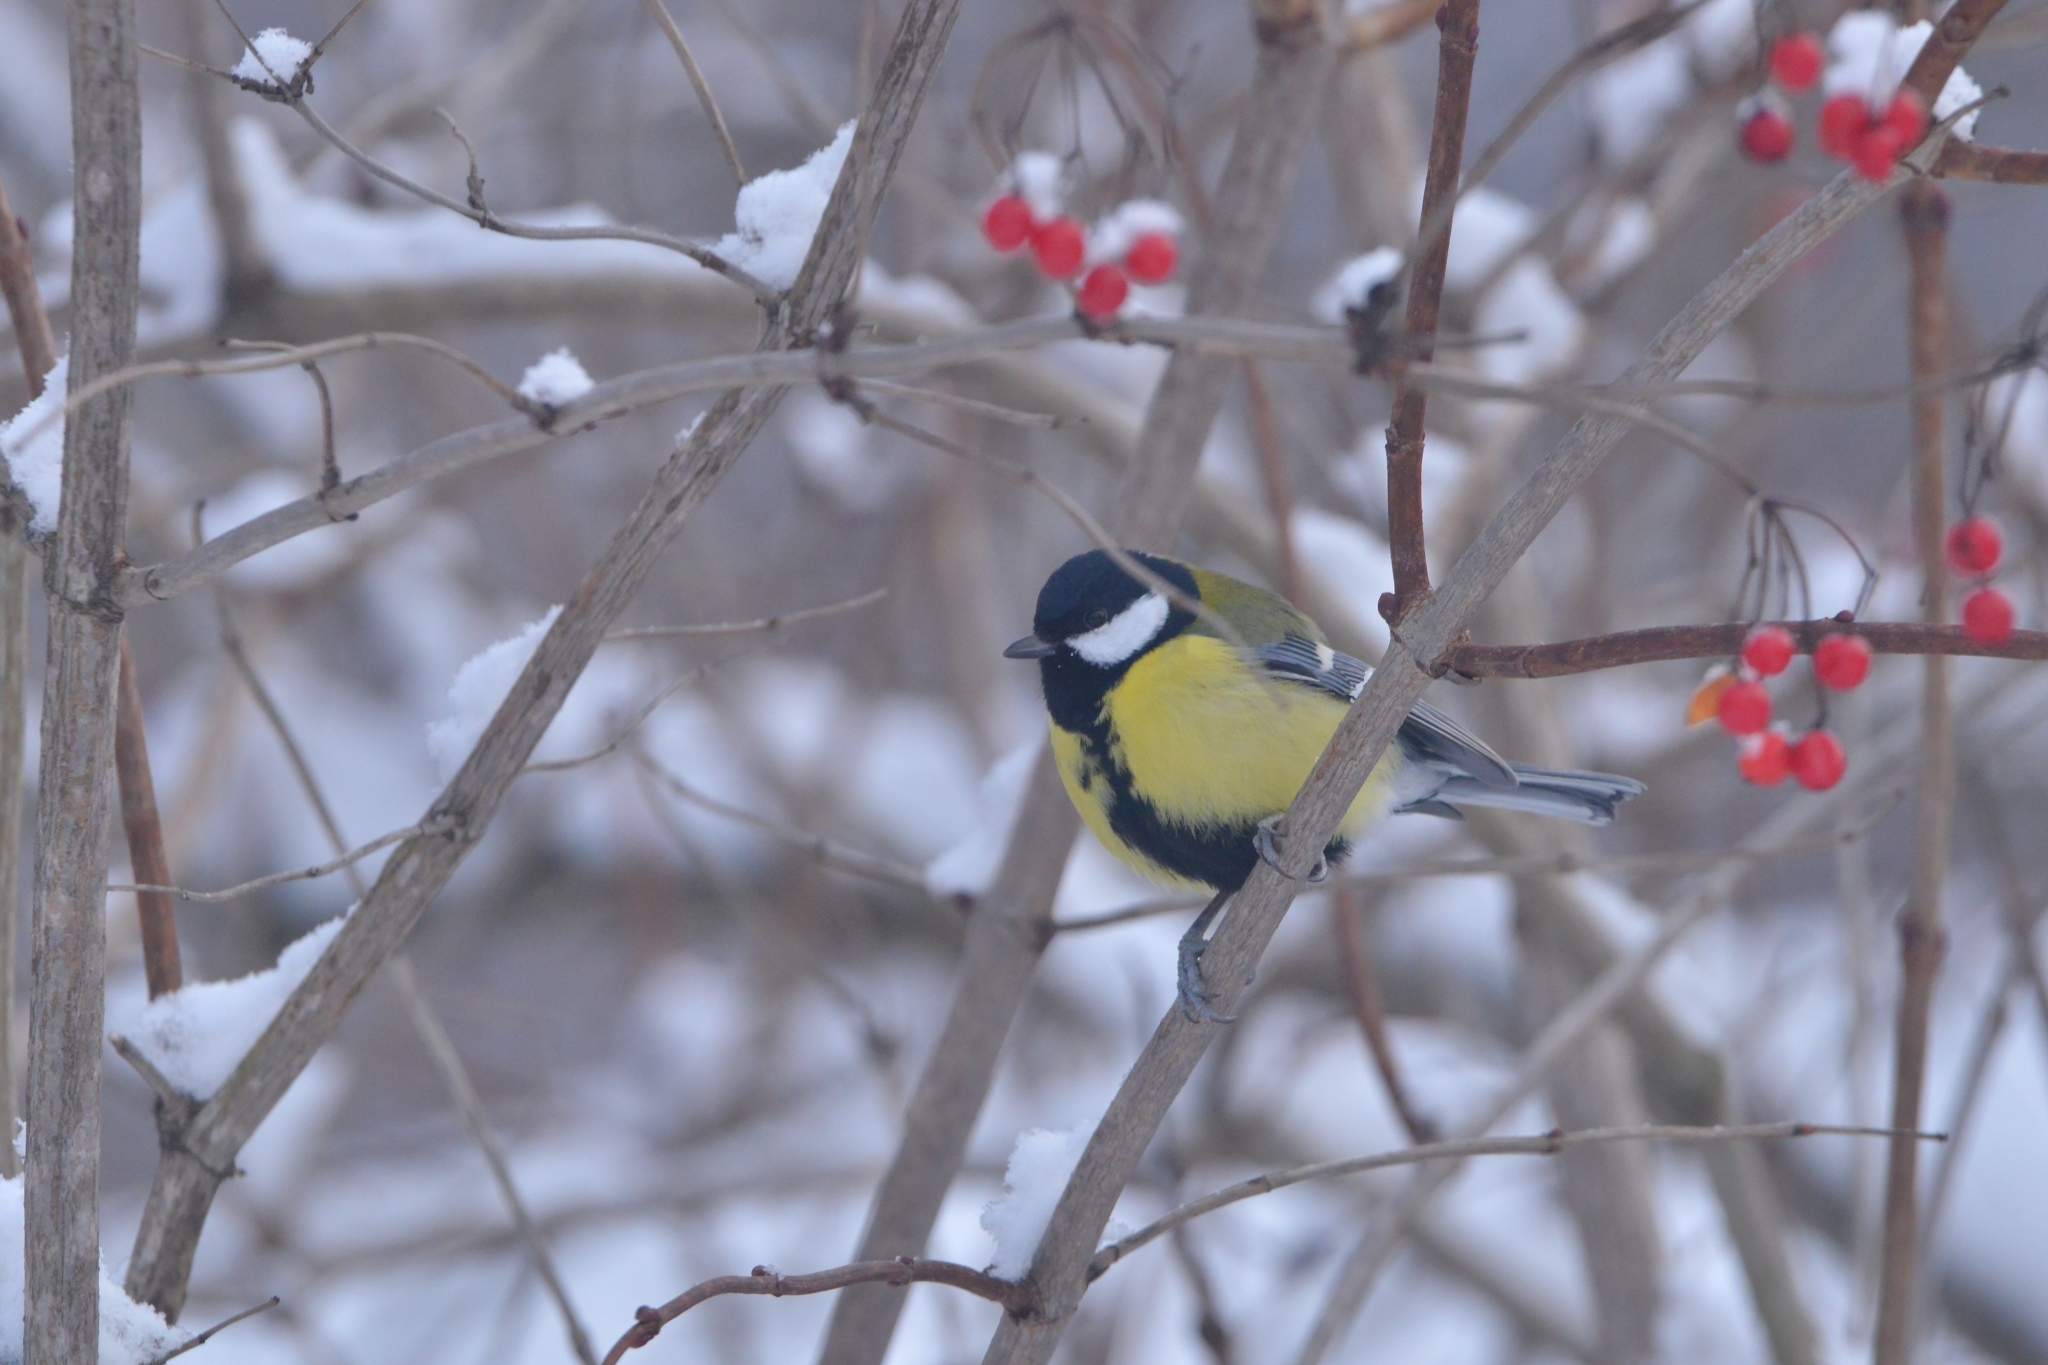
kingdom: Animalia
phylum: Chordata
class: Aves
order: Passeriformes
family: Paridae
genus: Parus
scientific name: Parus major
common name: Great tit
